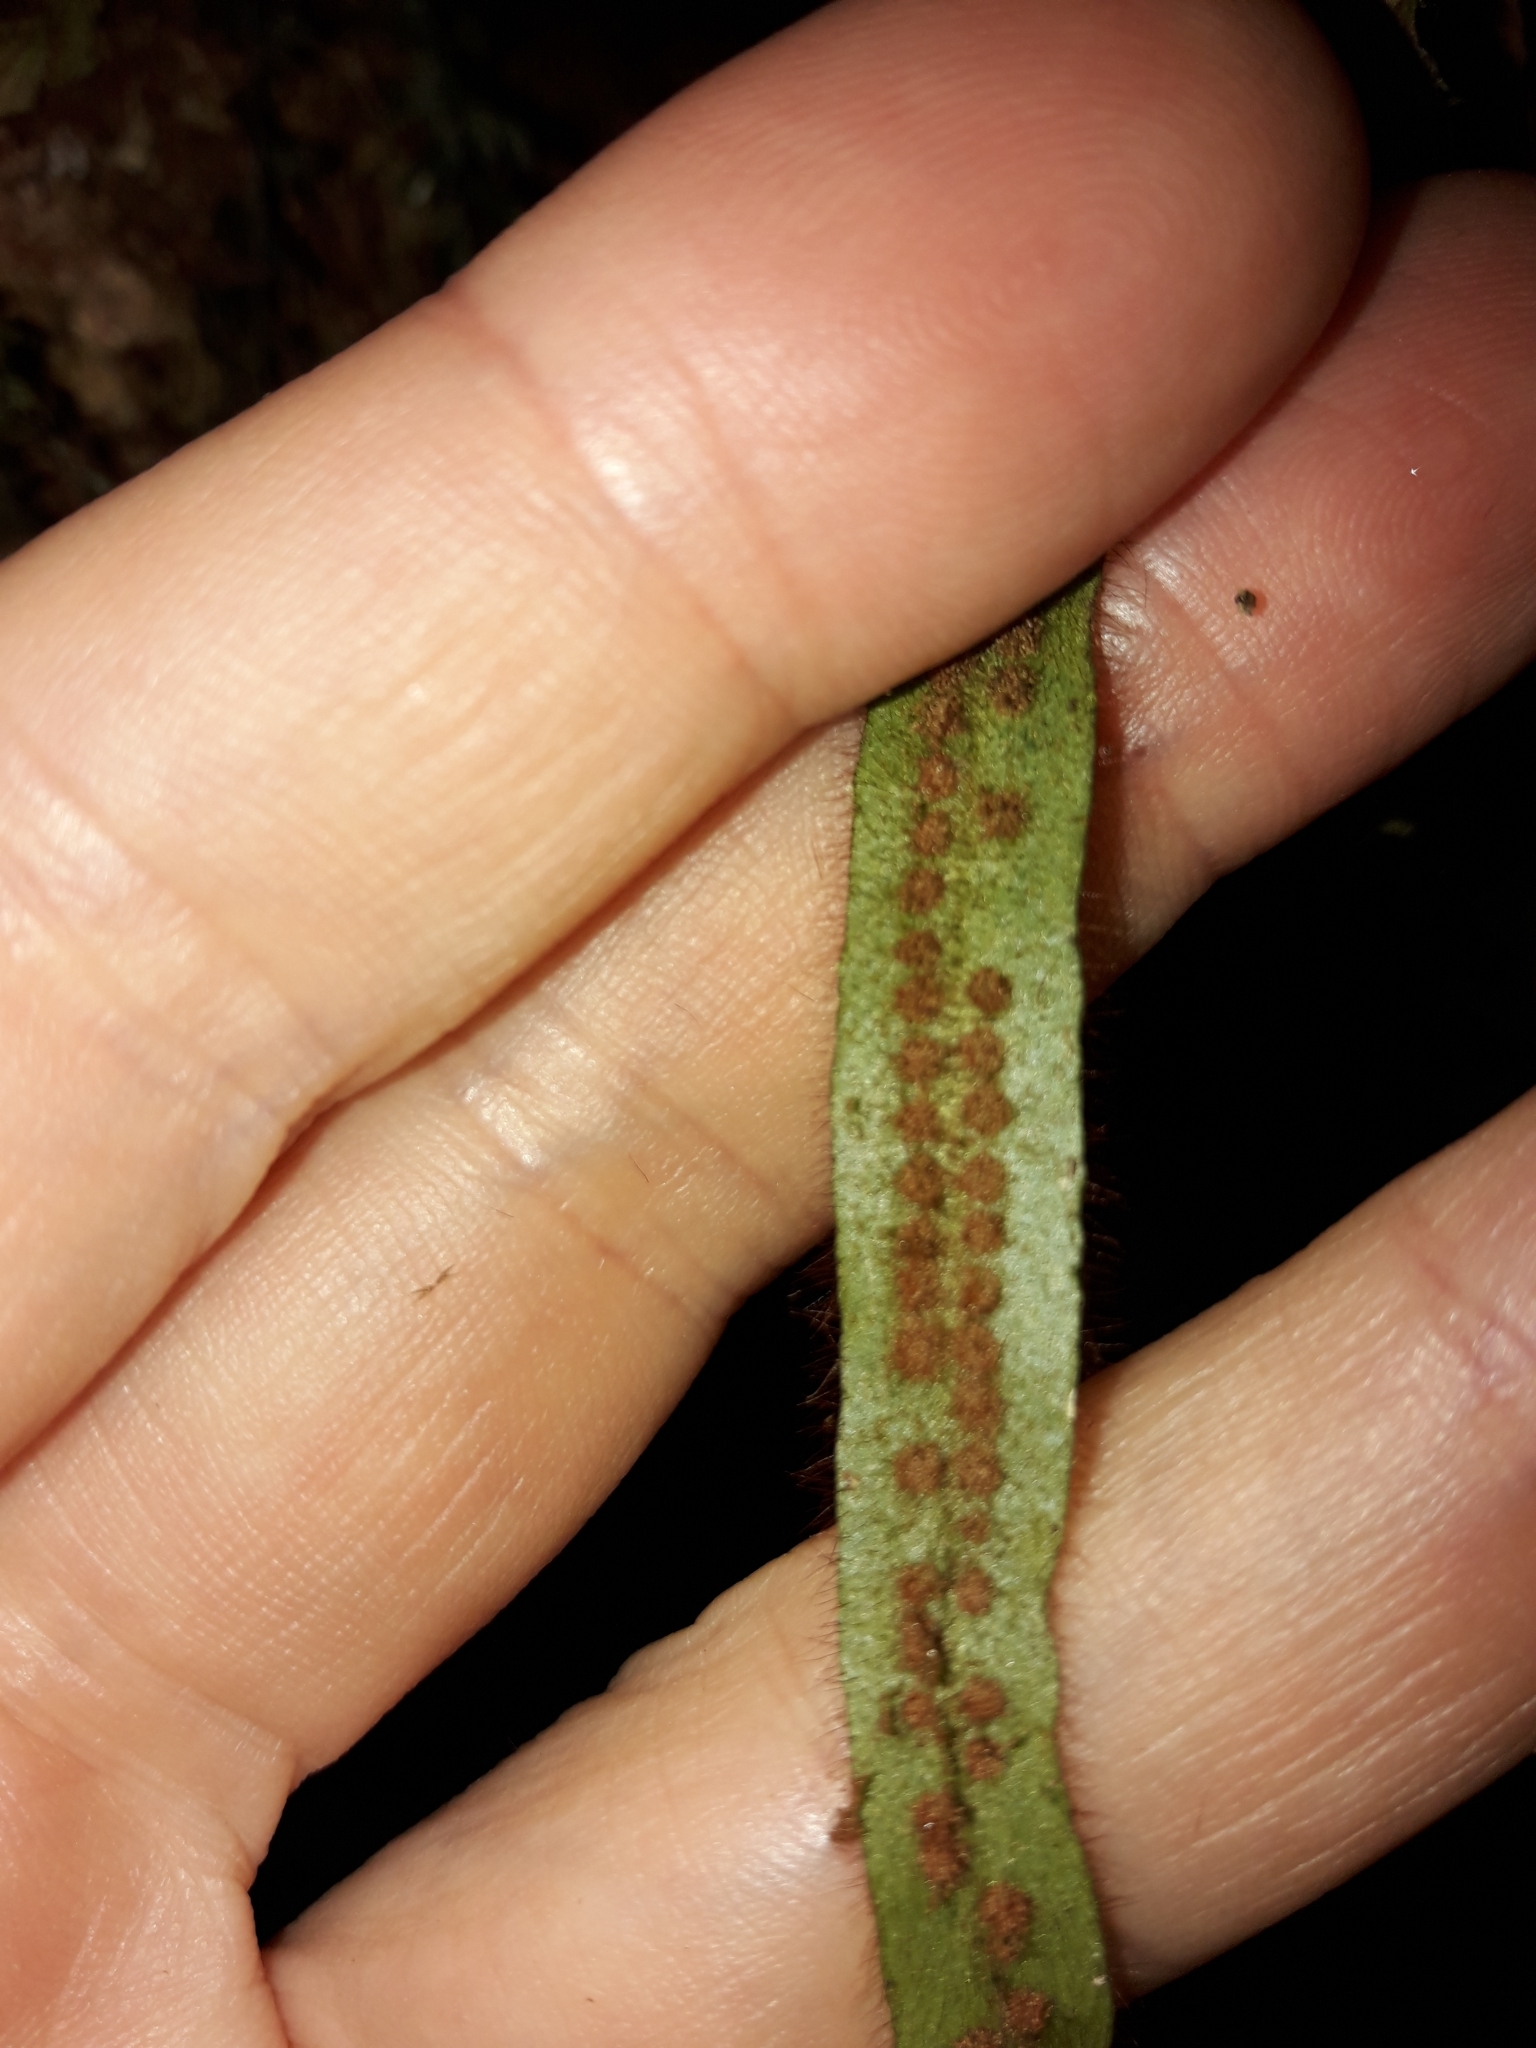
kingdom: Plantae
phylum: Tracheophyta
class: Polypodiopsida
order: Polypodiales
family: Polypodiaceae
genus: Oreogrammitis
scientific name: Oreogrammitis neocaledonica
